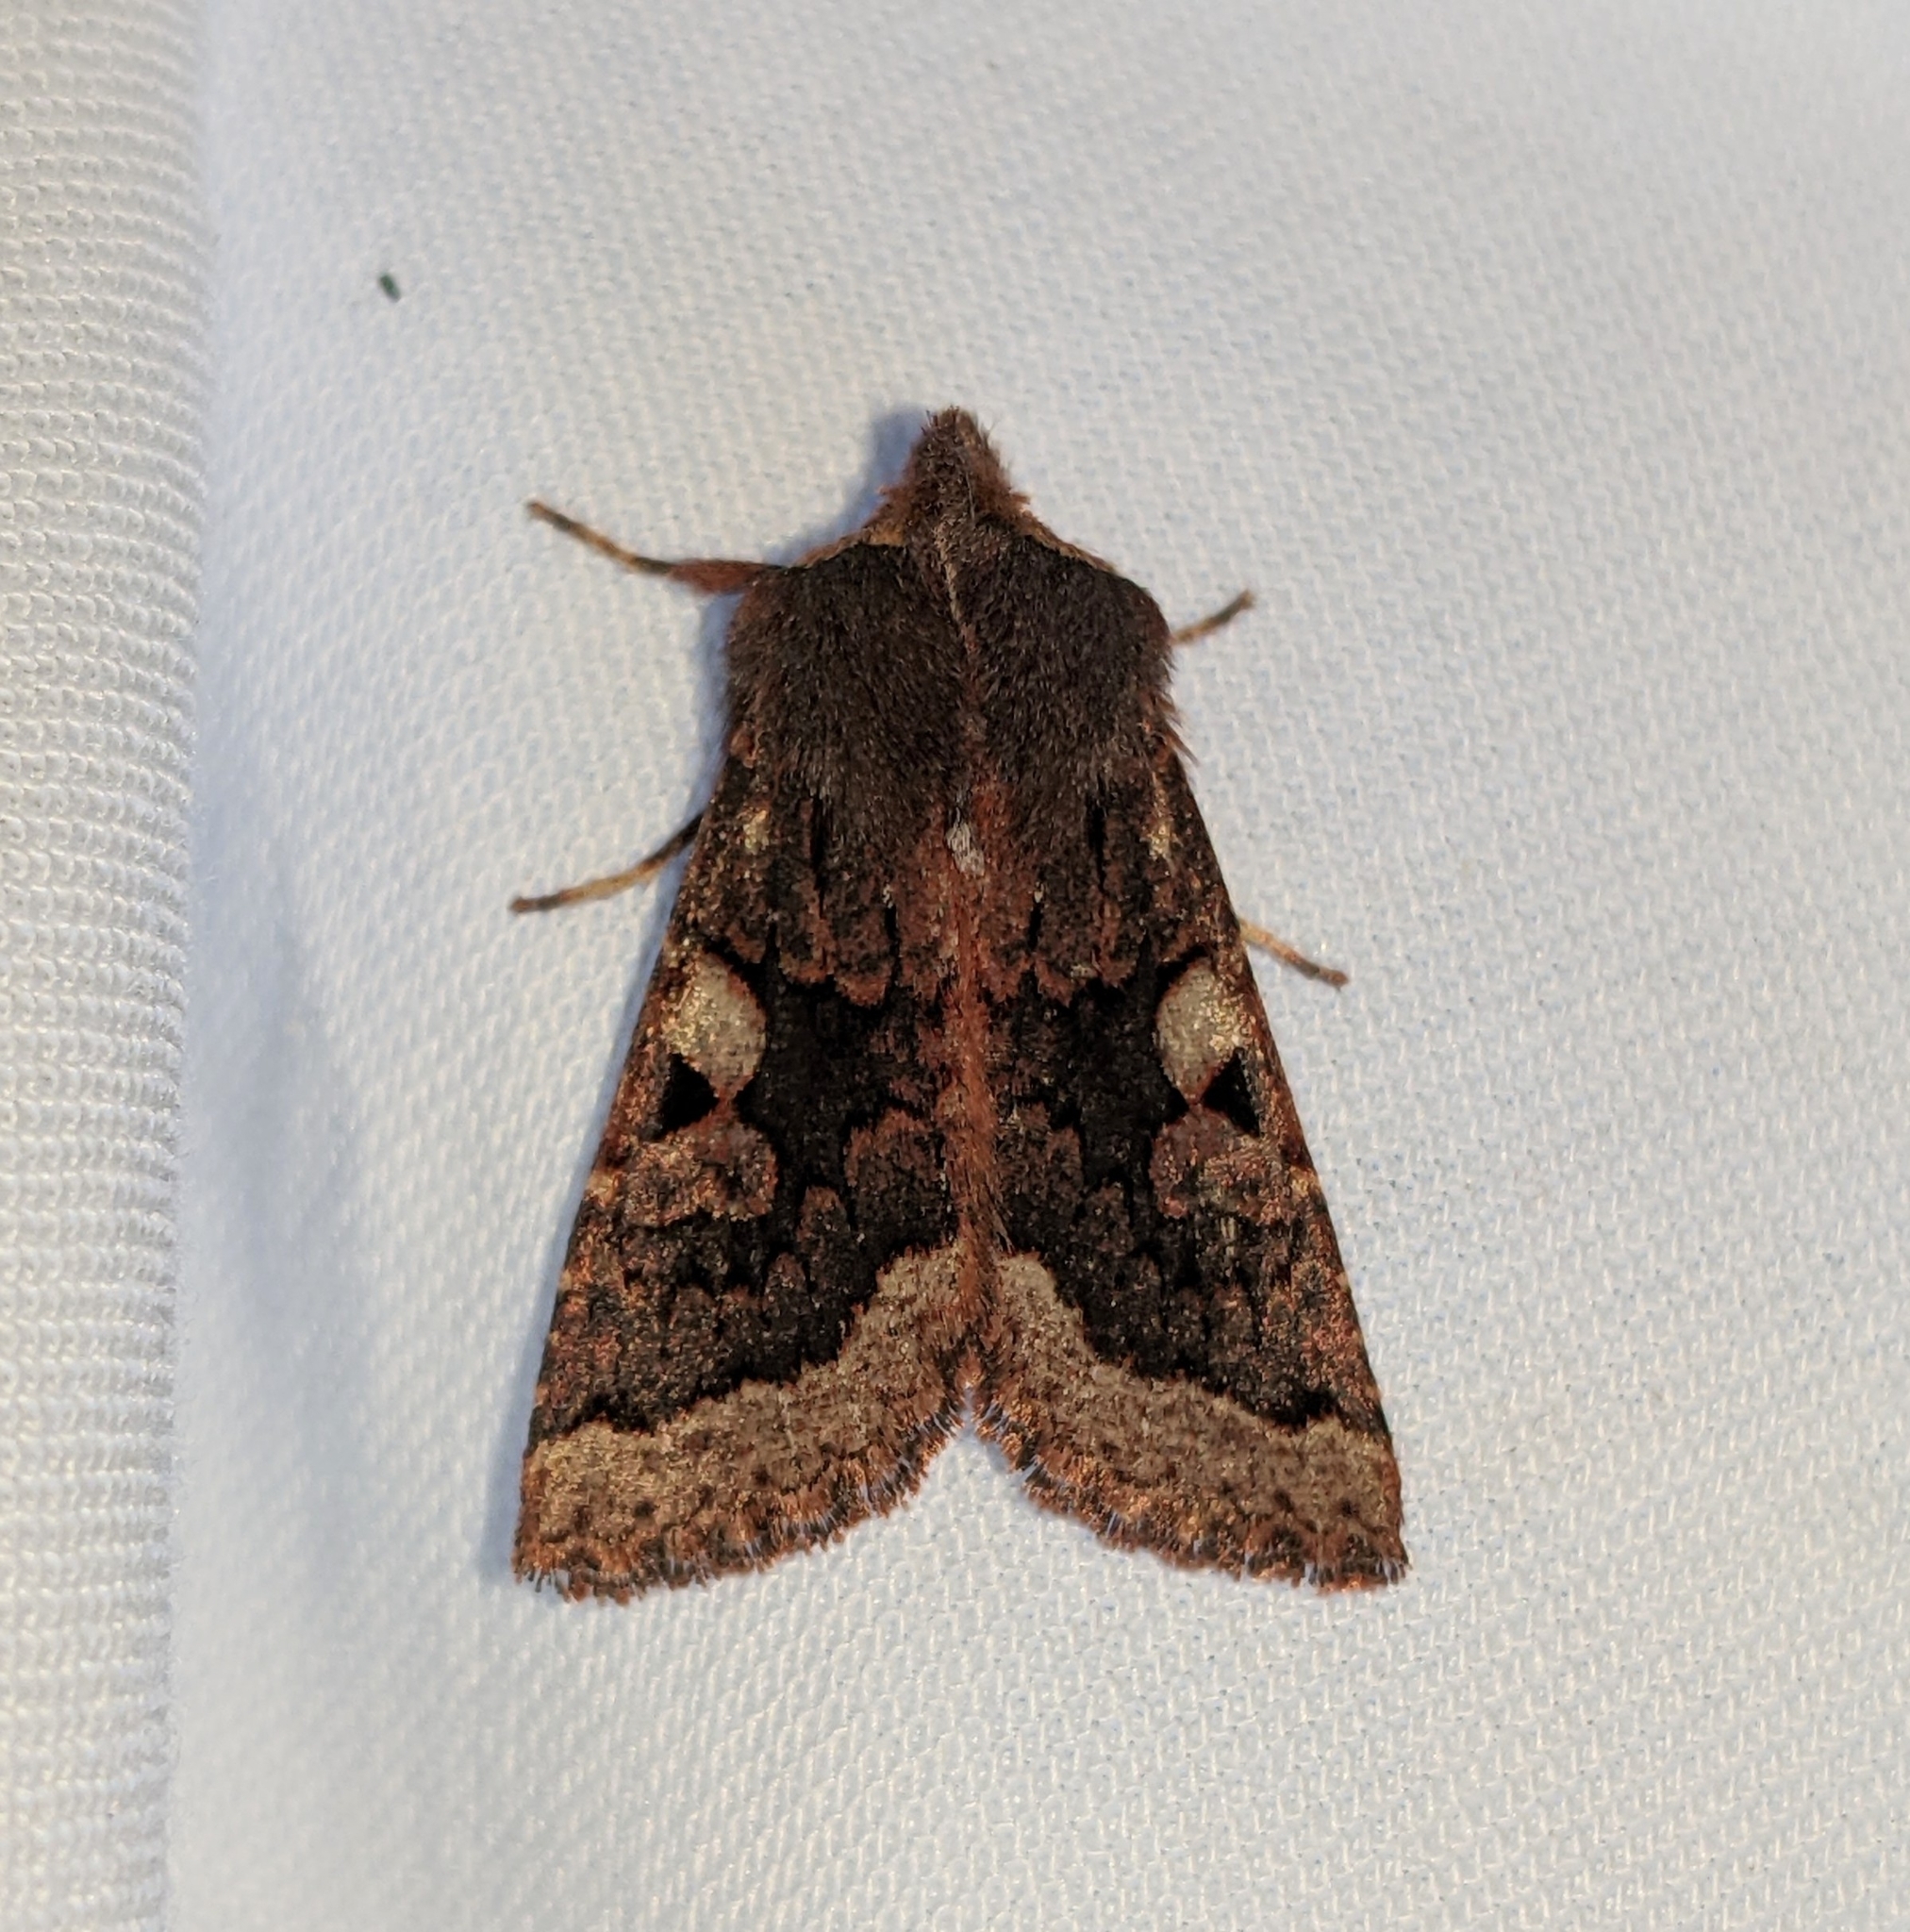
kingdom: Animalia
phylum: Arthropoda
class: Insecta
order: Lepidoptera
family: Noctuidae
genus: Orthosia
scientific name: Orthosia praeses
